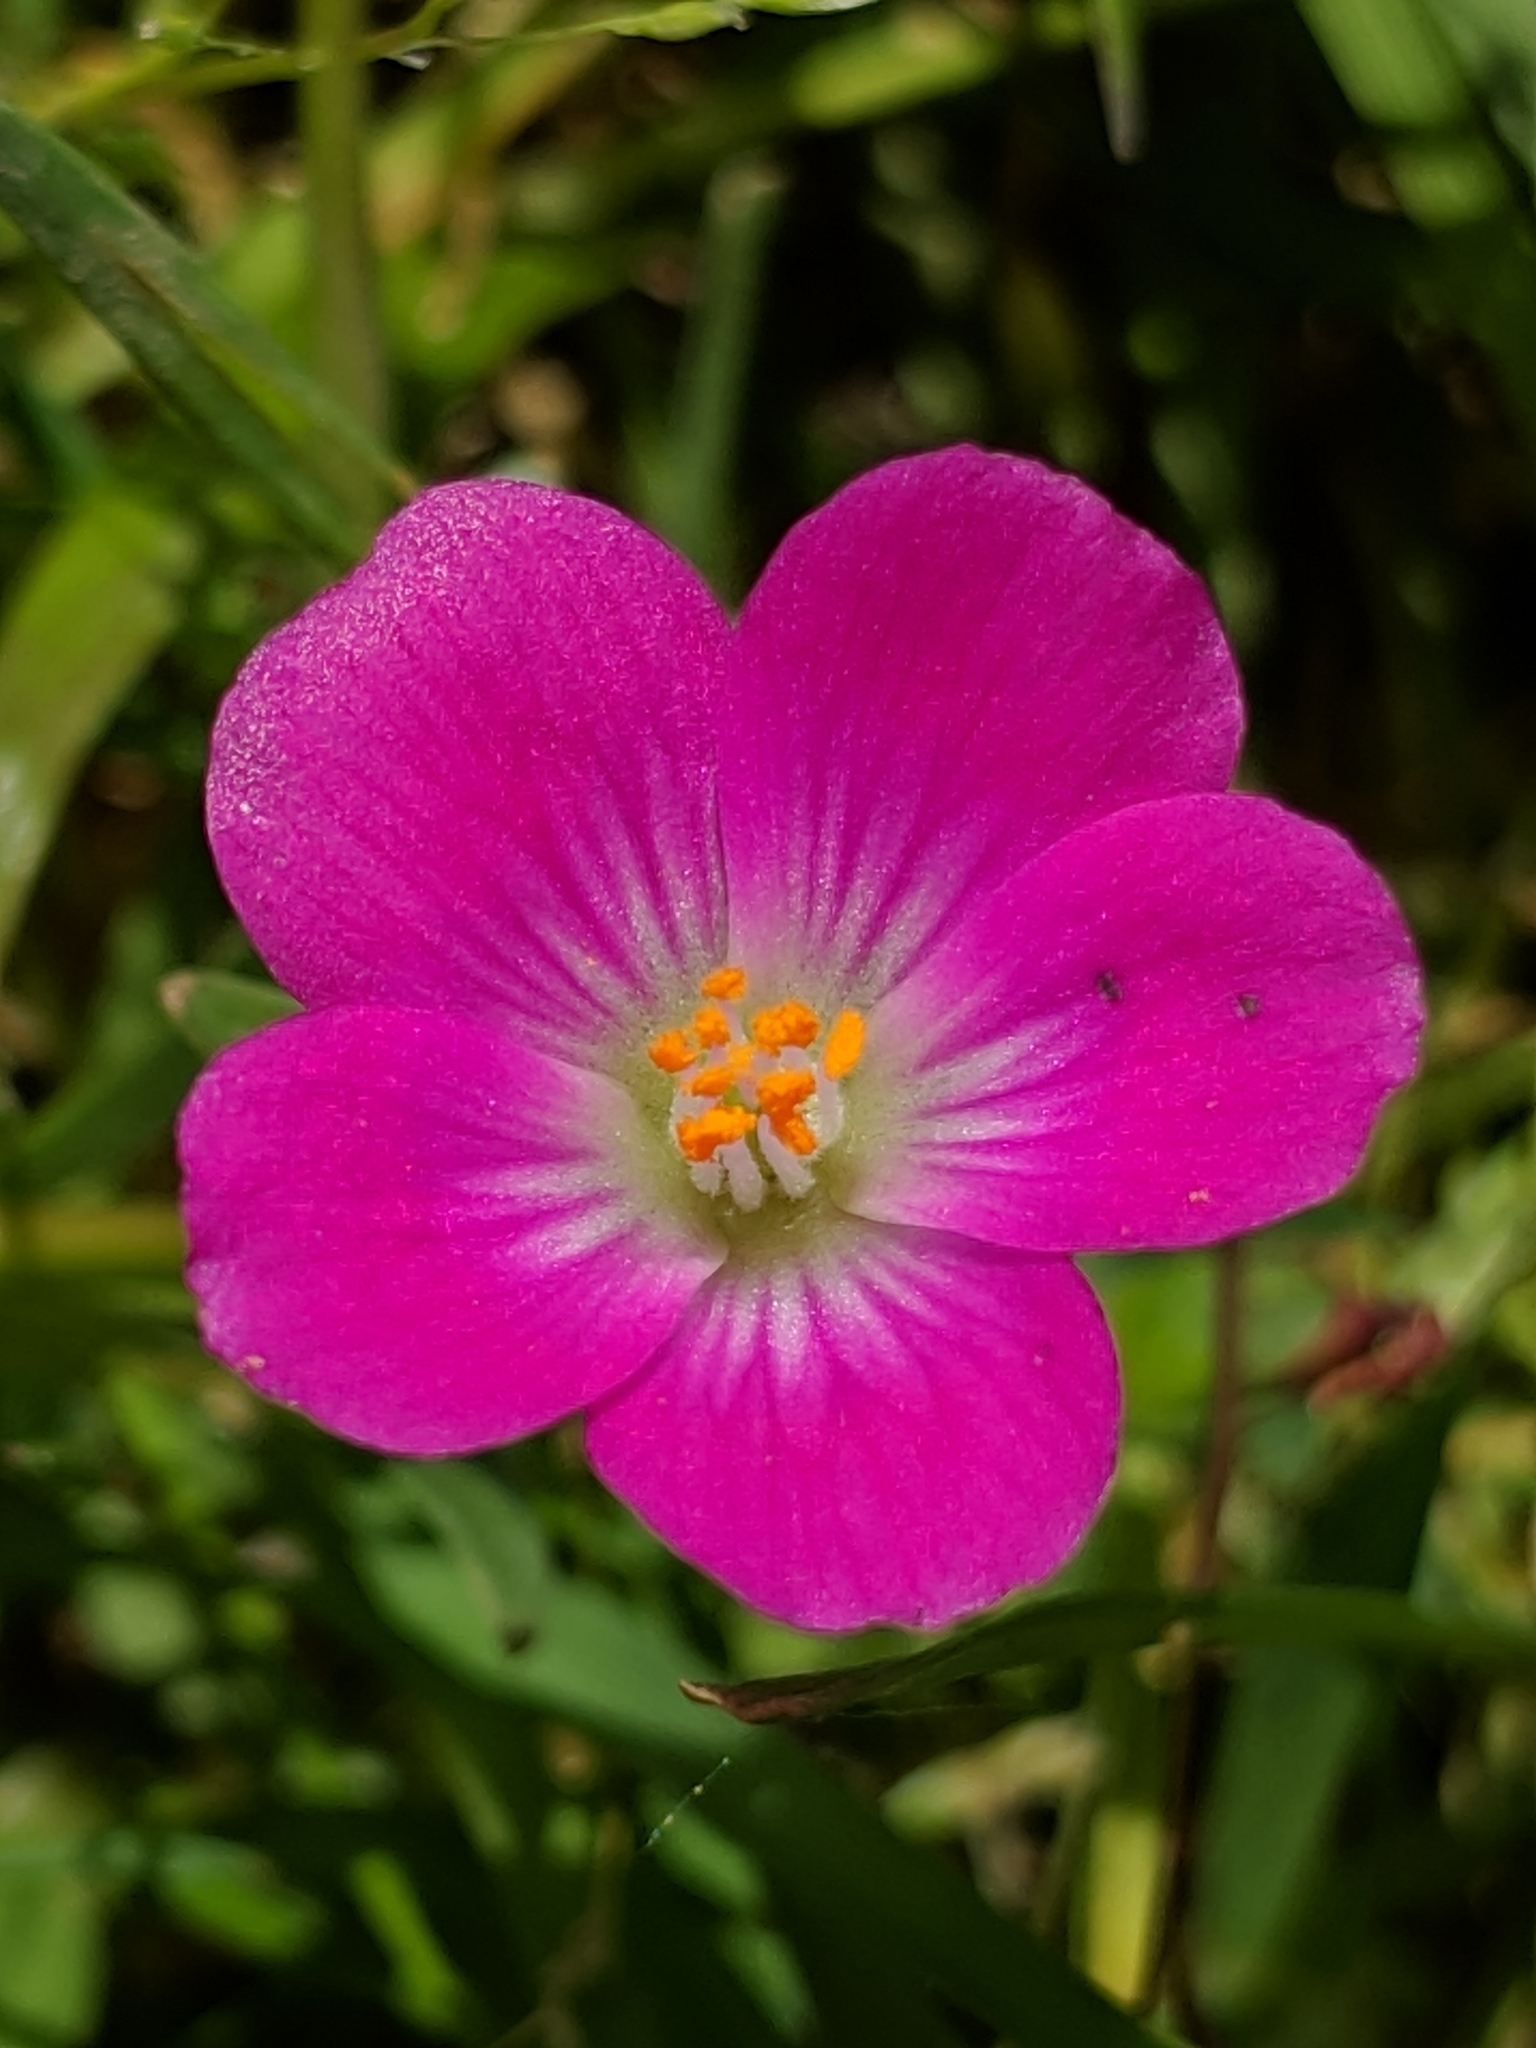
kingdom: Plantae
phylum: Tracheophyta
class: Magnoliopsida
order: Caryophyllales
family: Montiaceae
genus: Calandrinia
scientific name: Calandrinia menziesii
